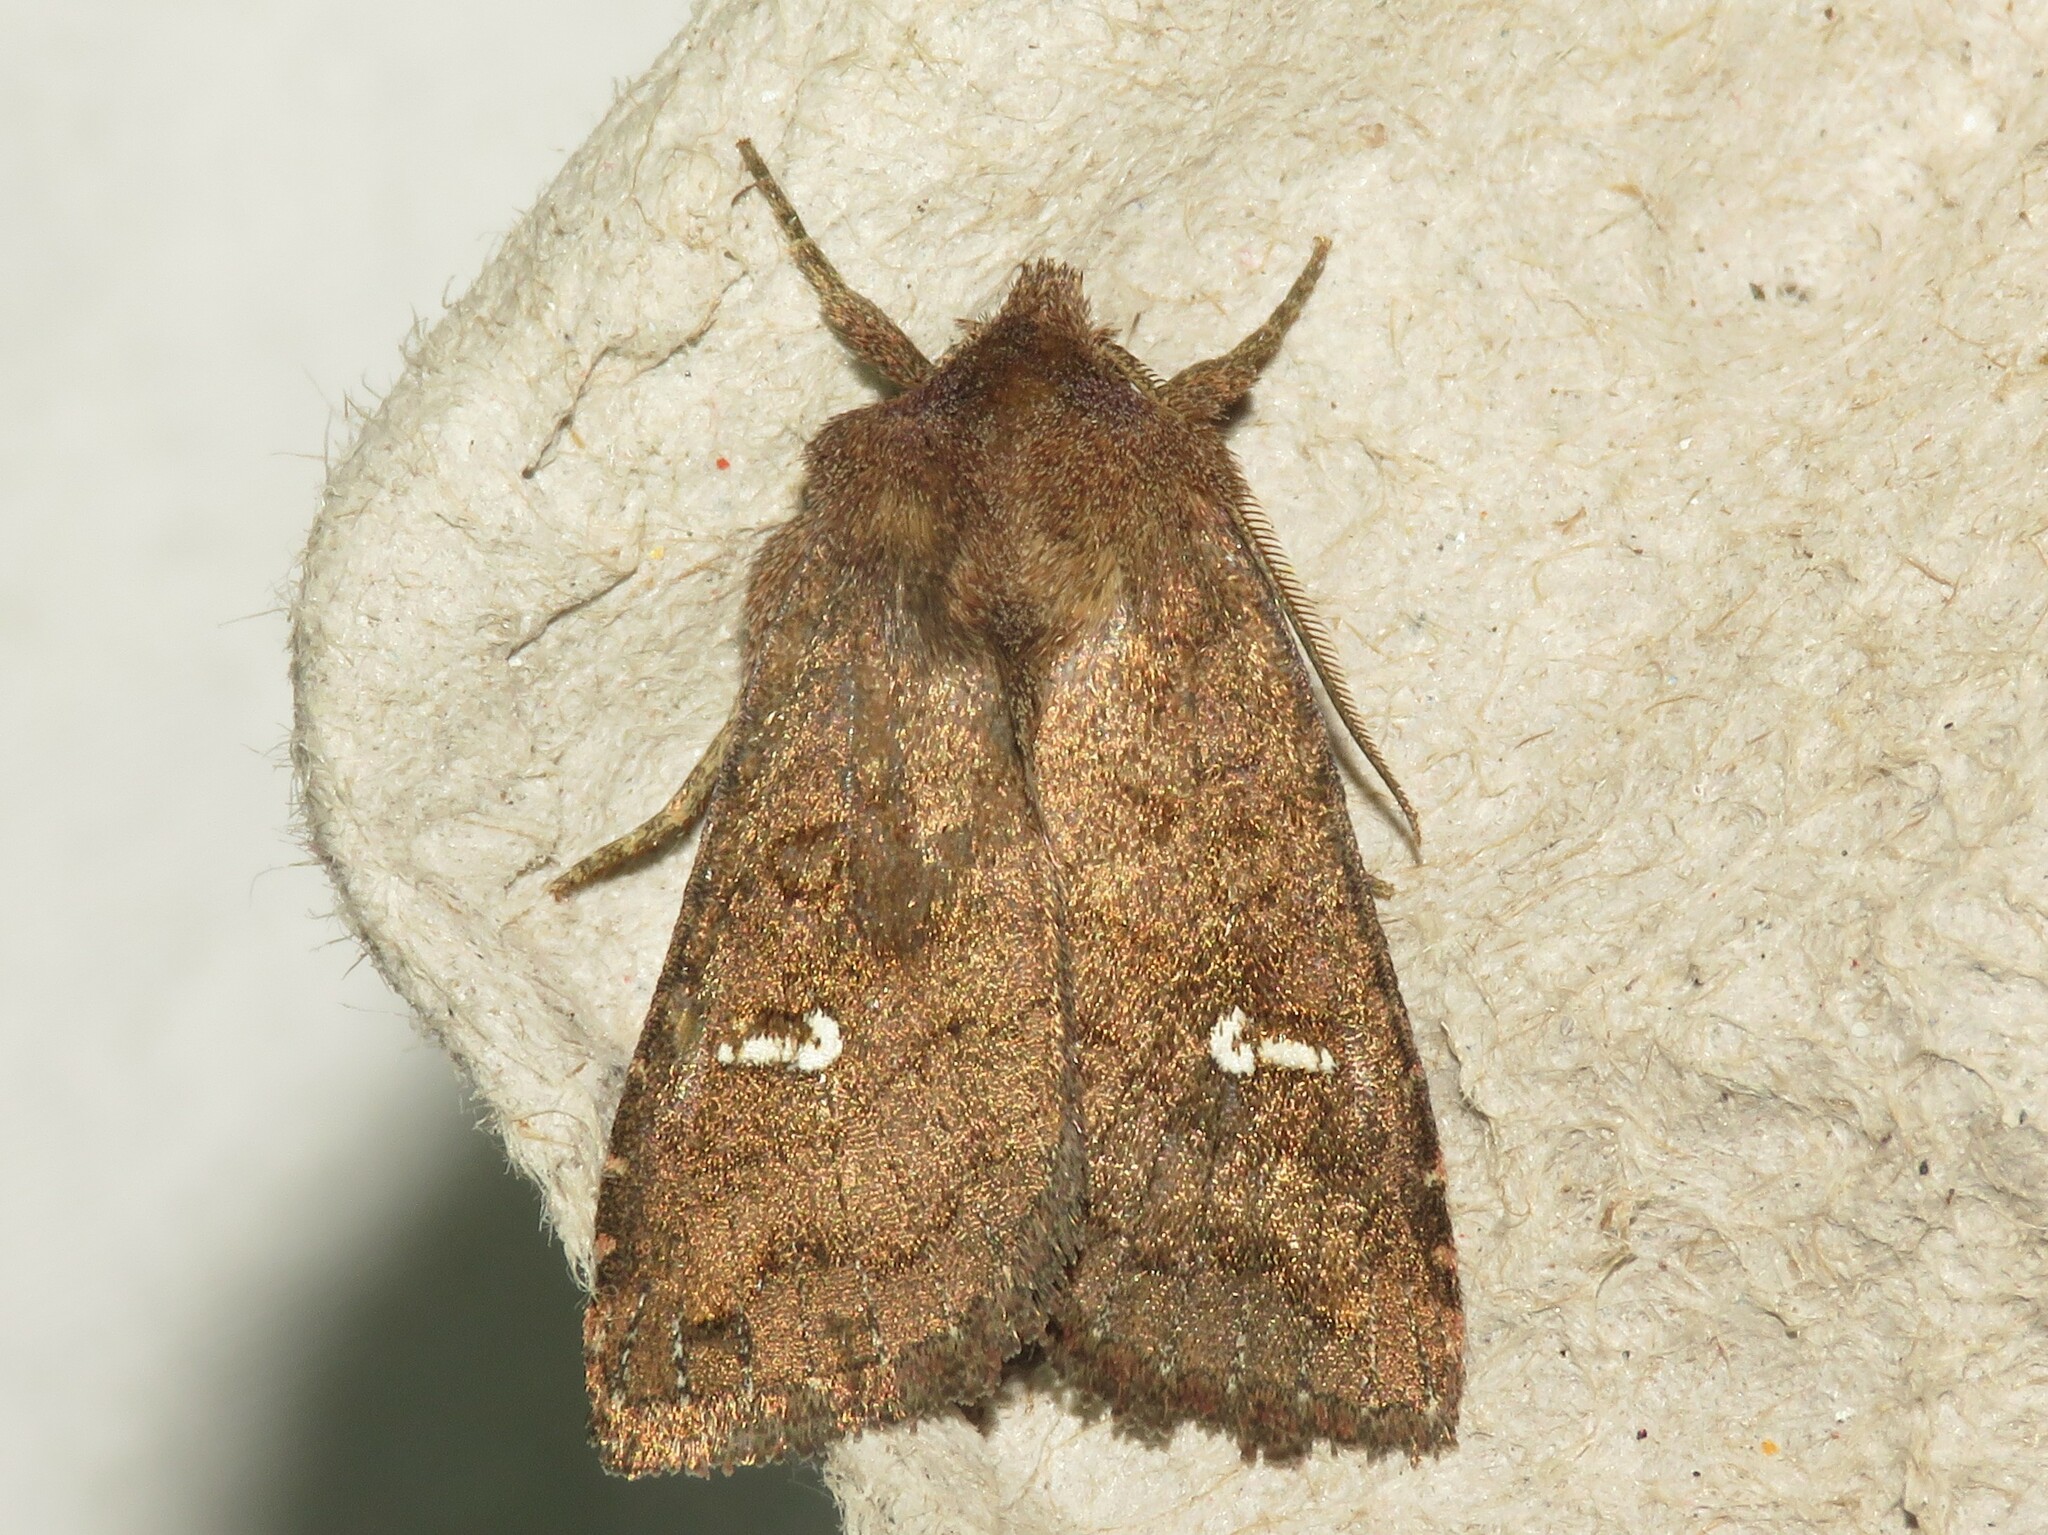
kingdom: Animalia
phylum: Arthropoda
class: Insecta
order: Lepidoptera
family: Noctuidae
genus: Tricholita
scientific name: Tricholita signata
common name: Signate quaker
